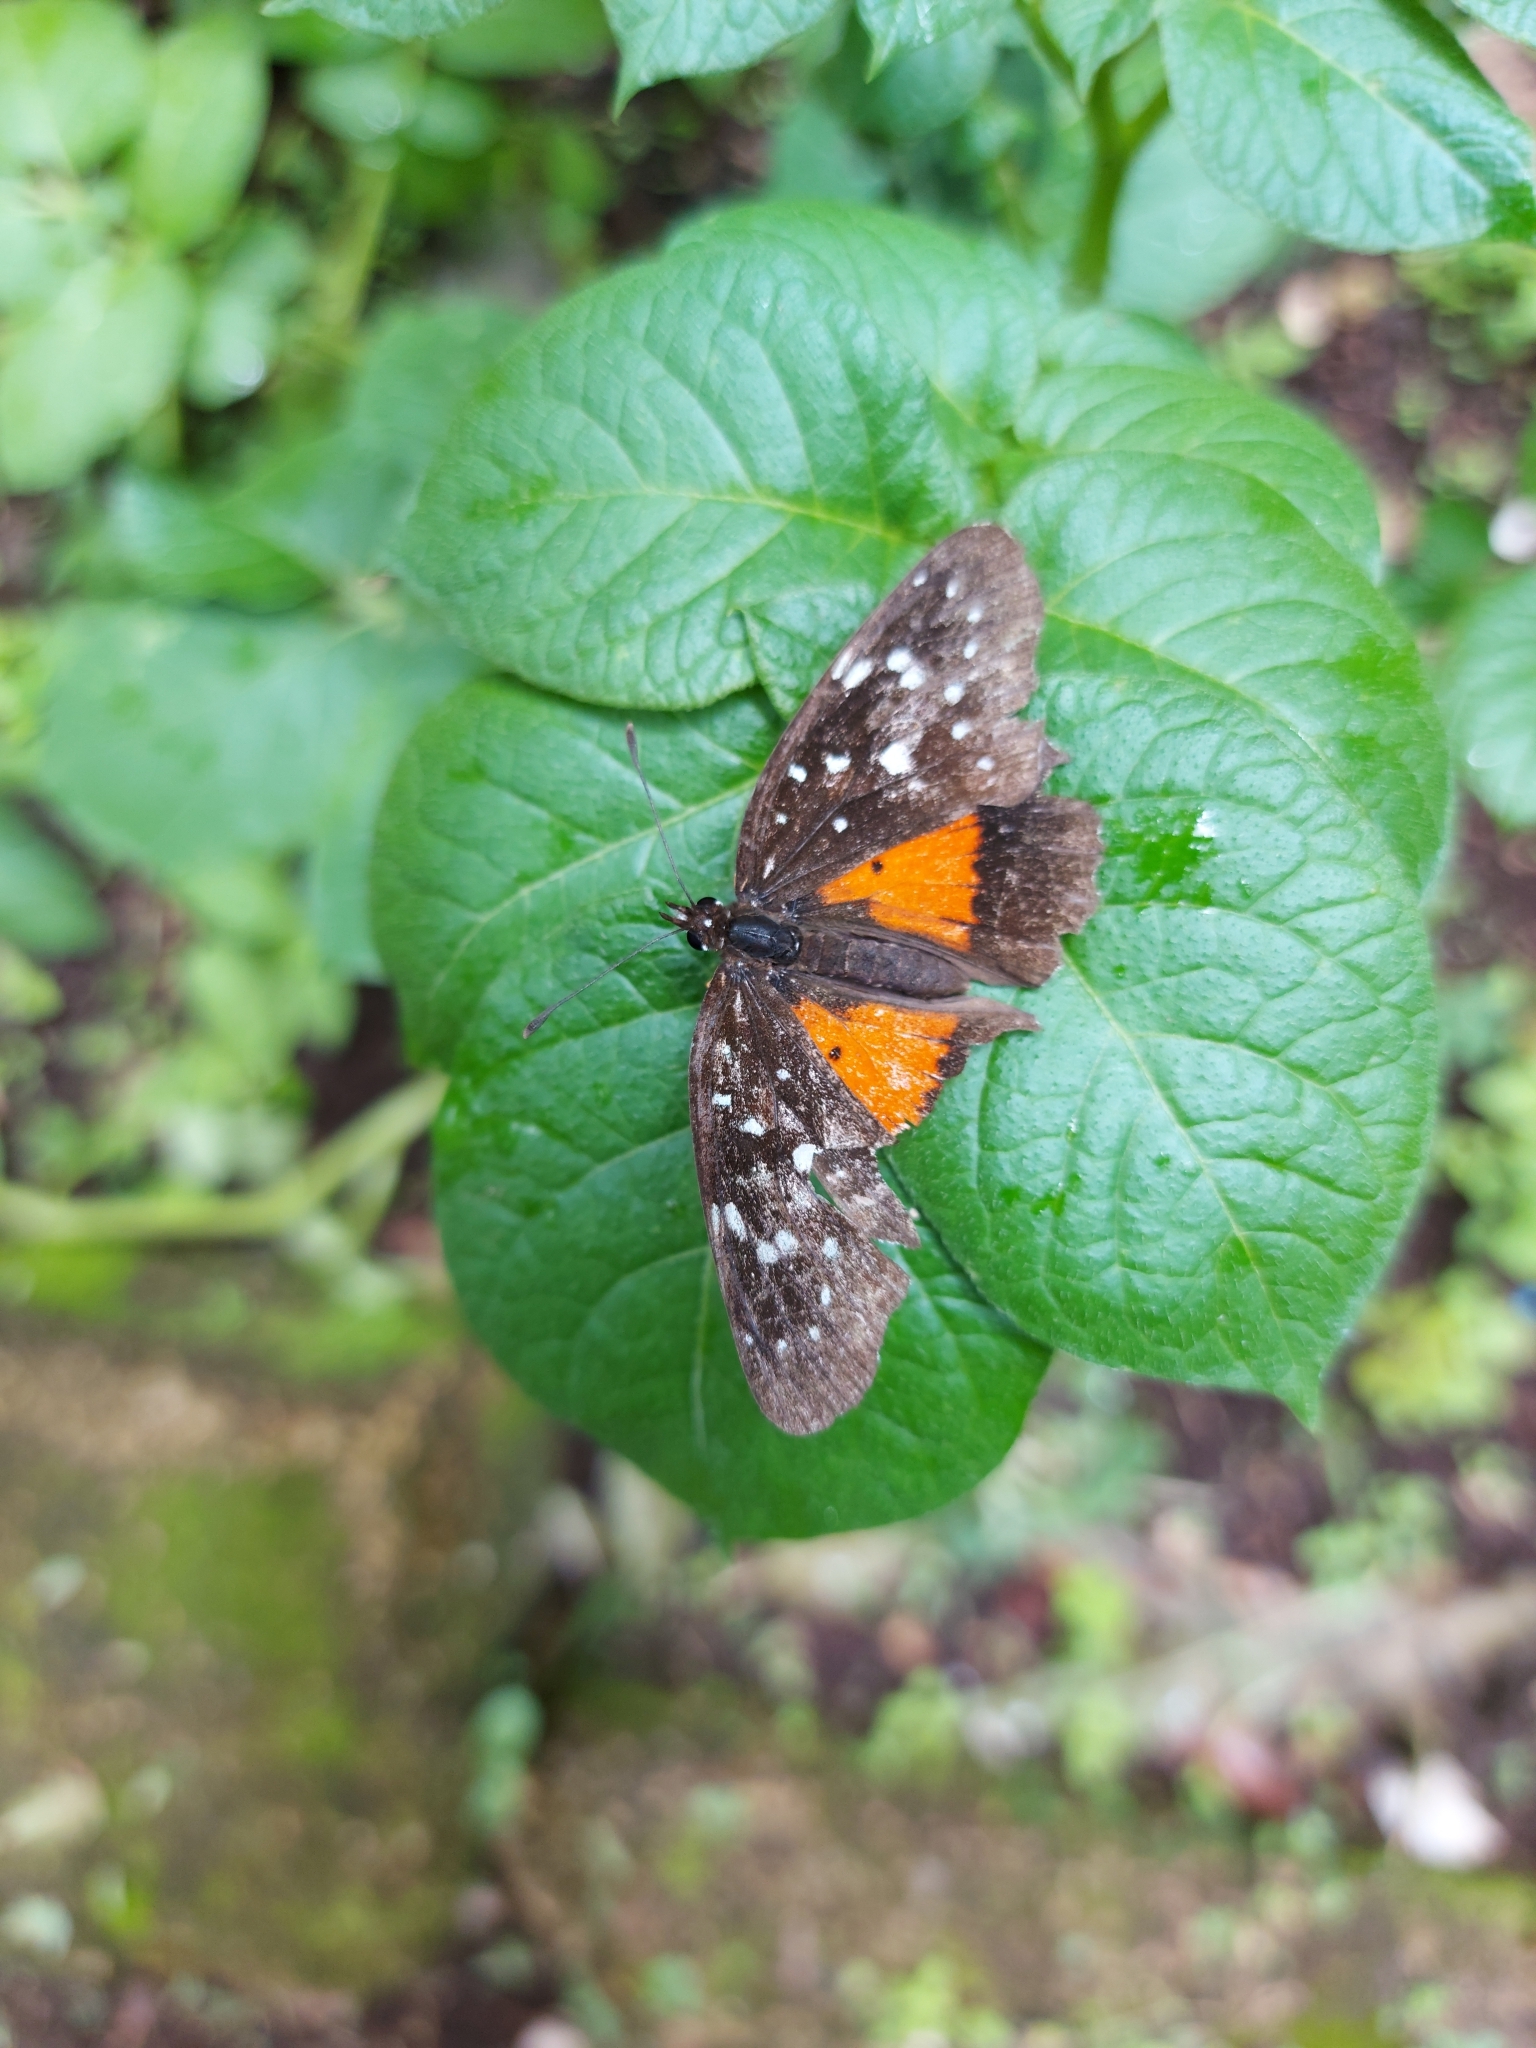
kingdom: Animalia
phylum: Arthropoda
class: Insecta
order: Lepidoptera
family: Nymphalidae
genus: Chlosyne
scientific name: Chlosyne janais
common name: Crimson patch
